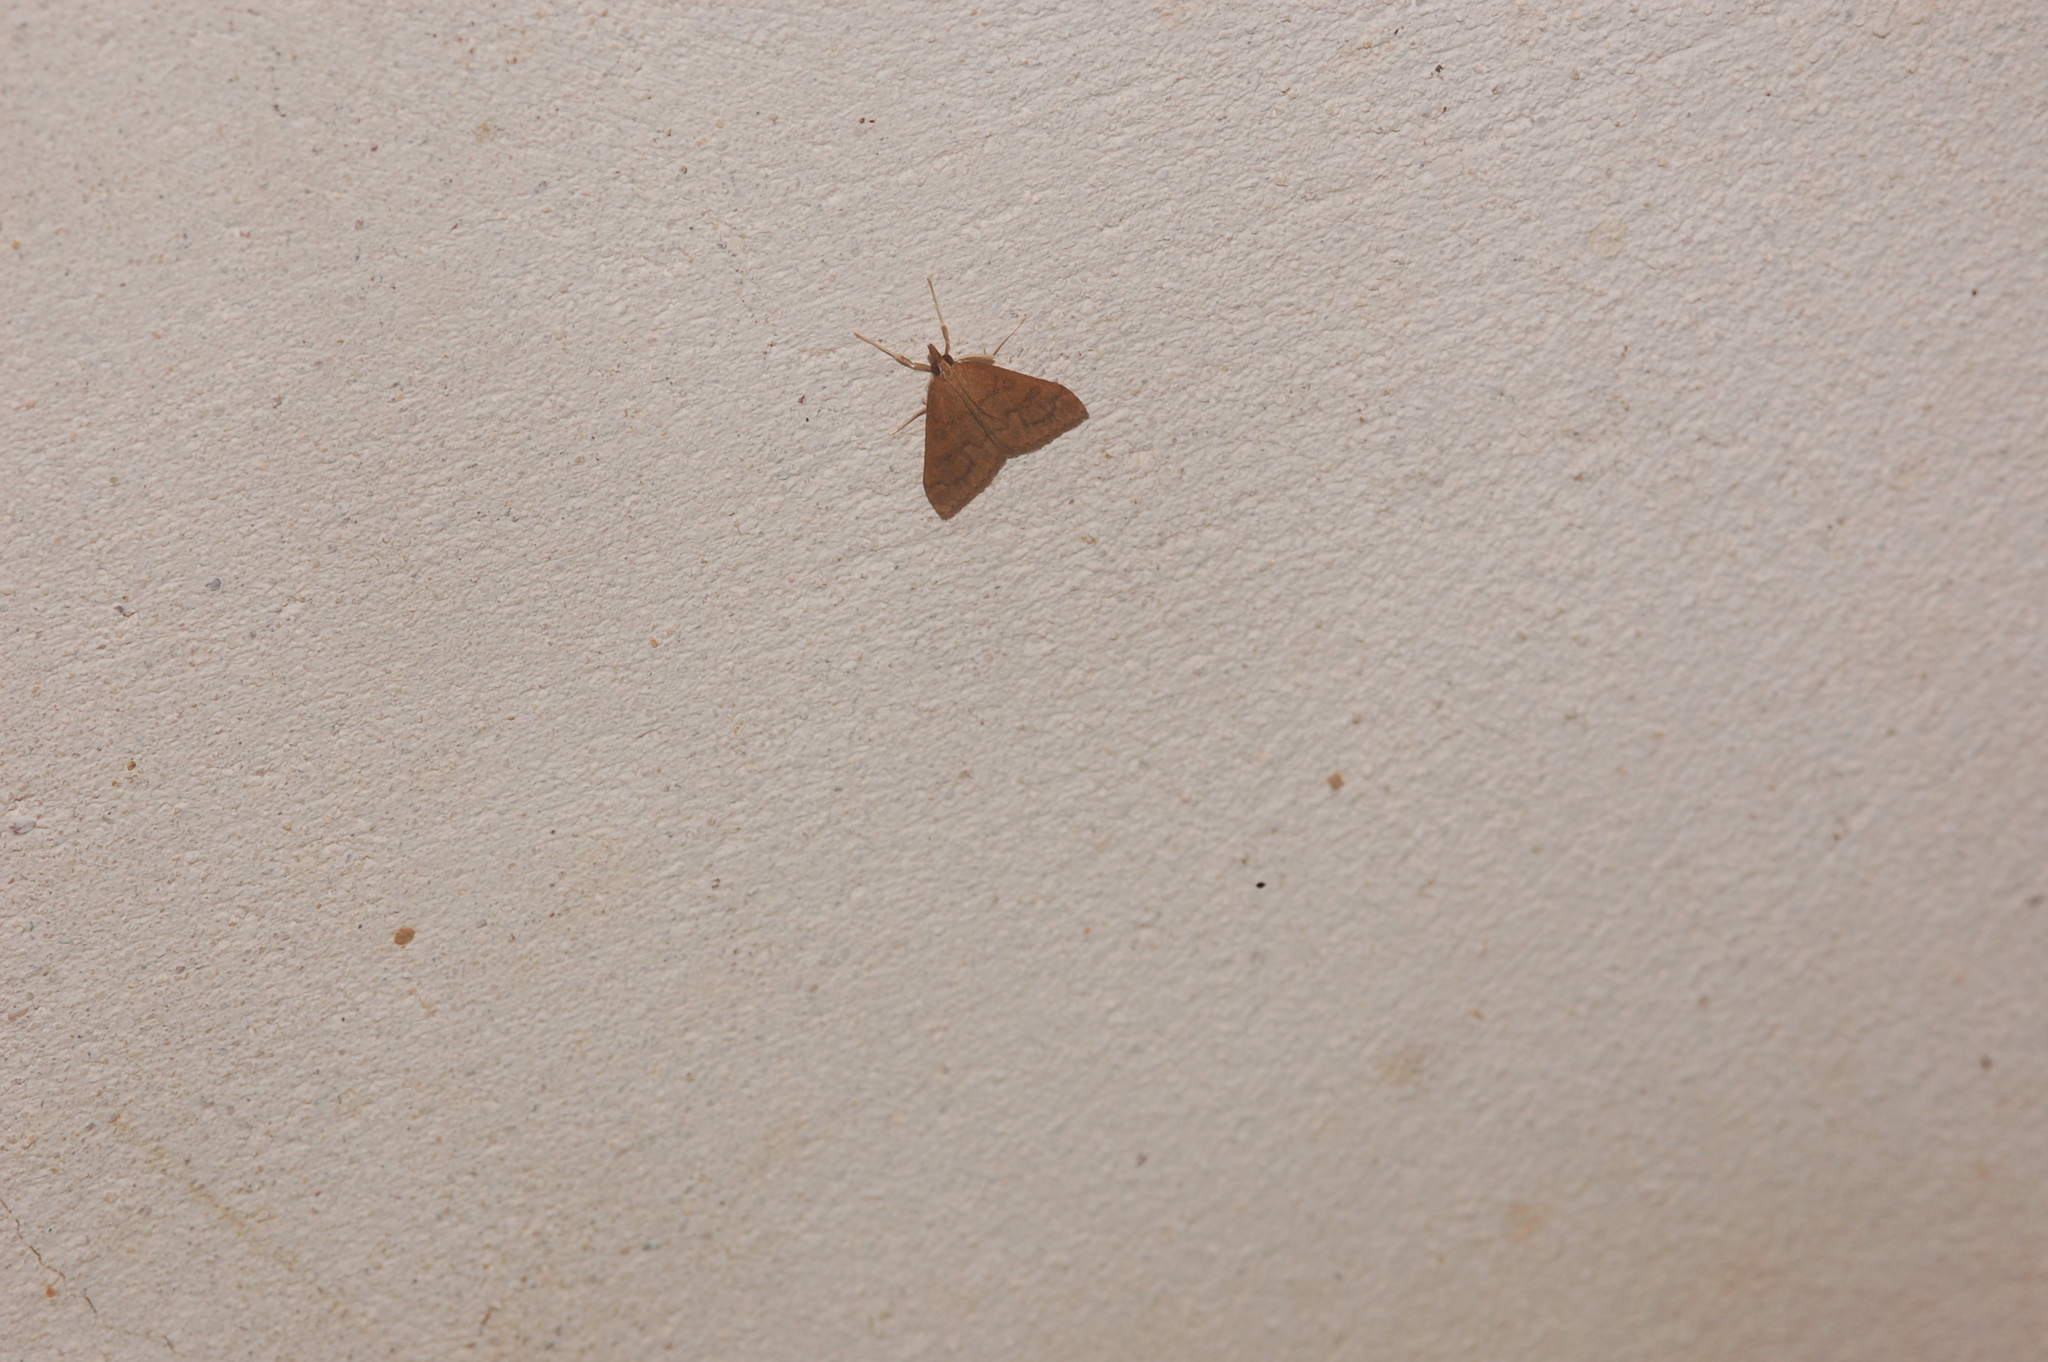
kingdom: Animalia
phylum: Arthropoda
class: Insecta
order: Lepidoptera
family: Crambidae
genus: Udea
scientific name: Udea rubigalis
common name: Celery leaftier moth
